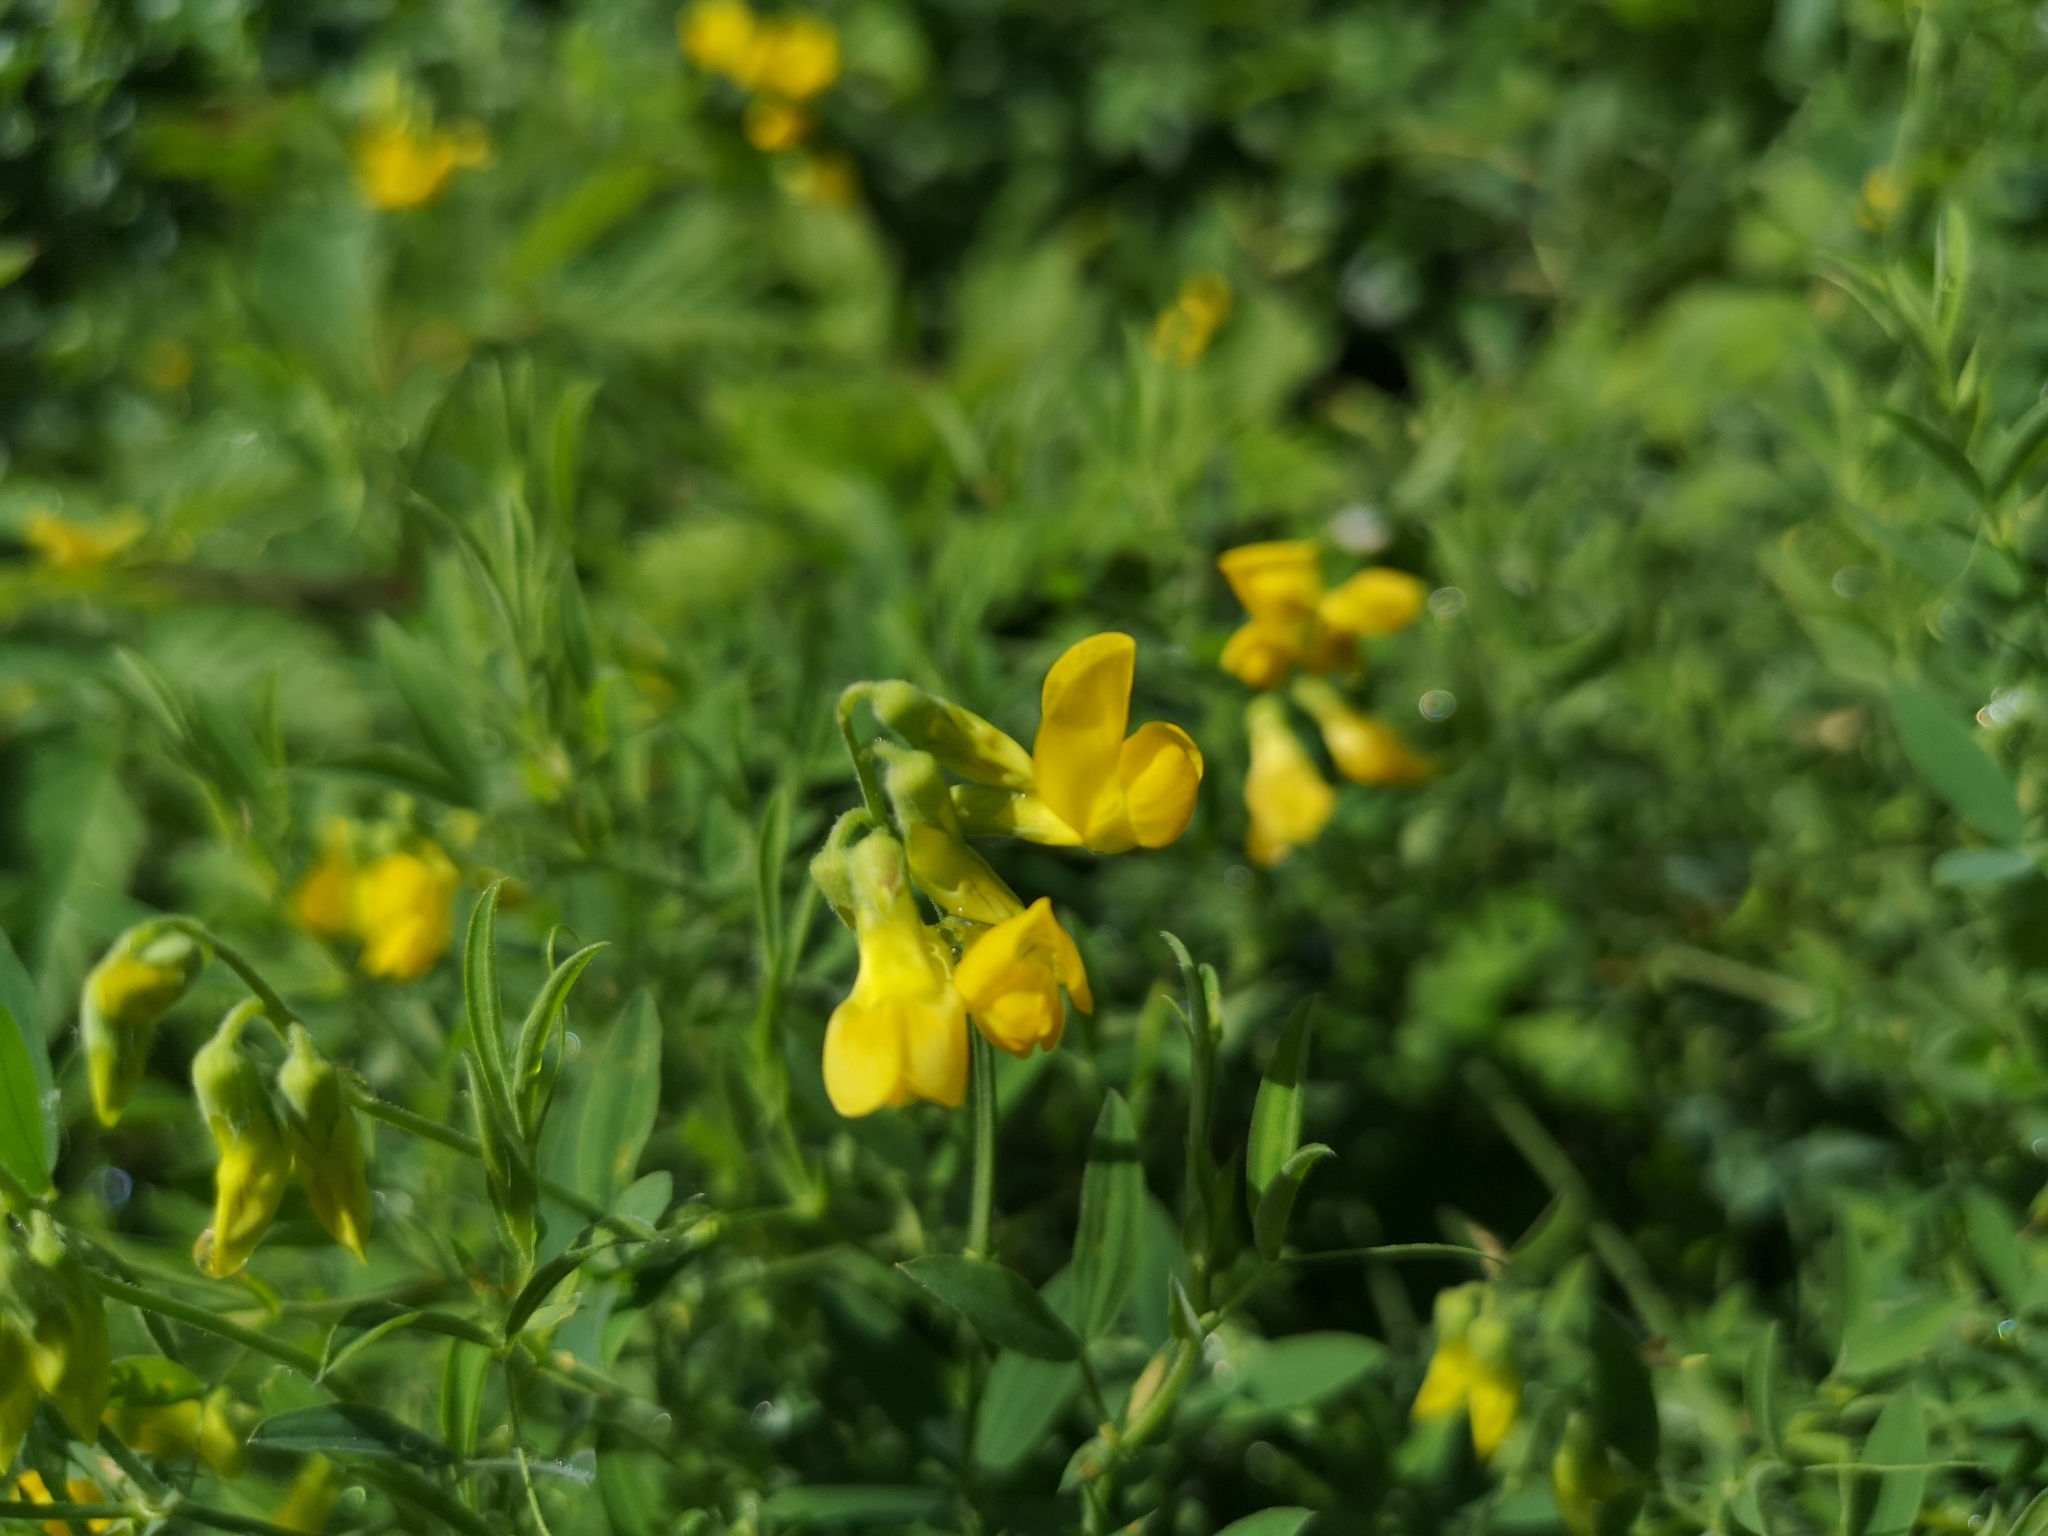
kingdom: Plantae
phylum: Tracheophyta
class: Magnoliopsida
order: Fabales
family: Fabaceae
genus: Lathyrus
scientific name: Lathyrus pratensis
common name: Meadow vetchling
